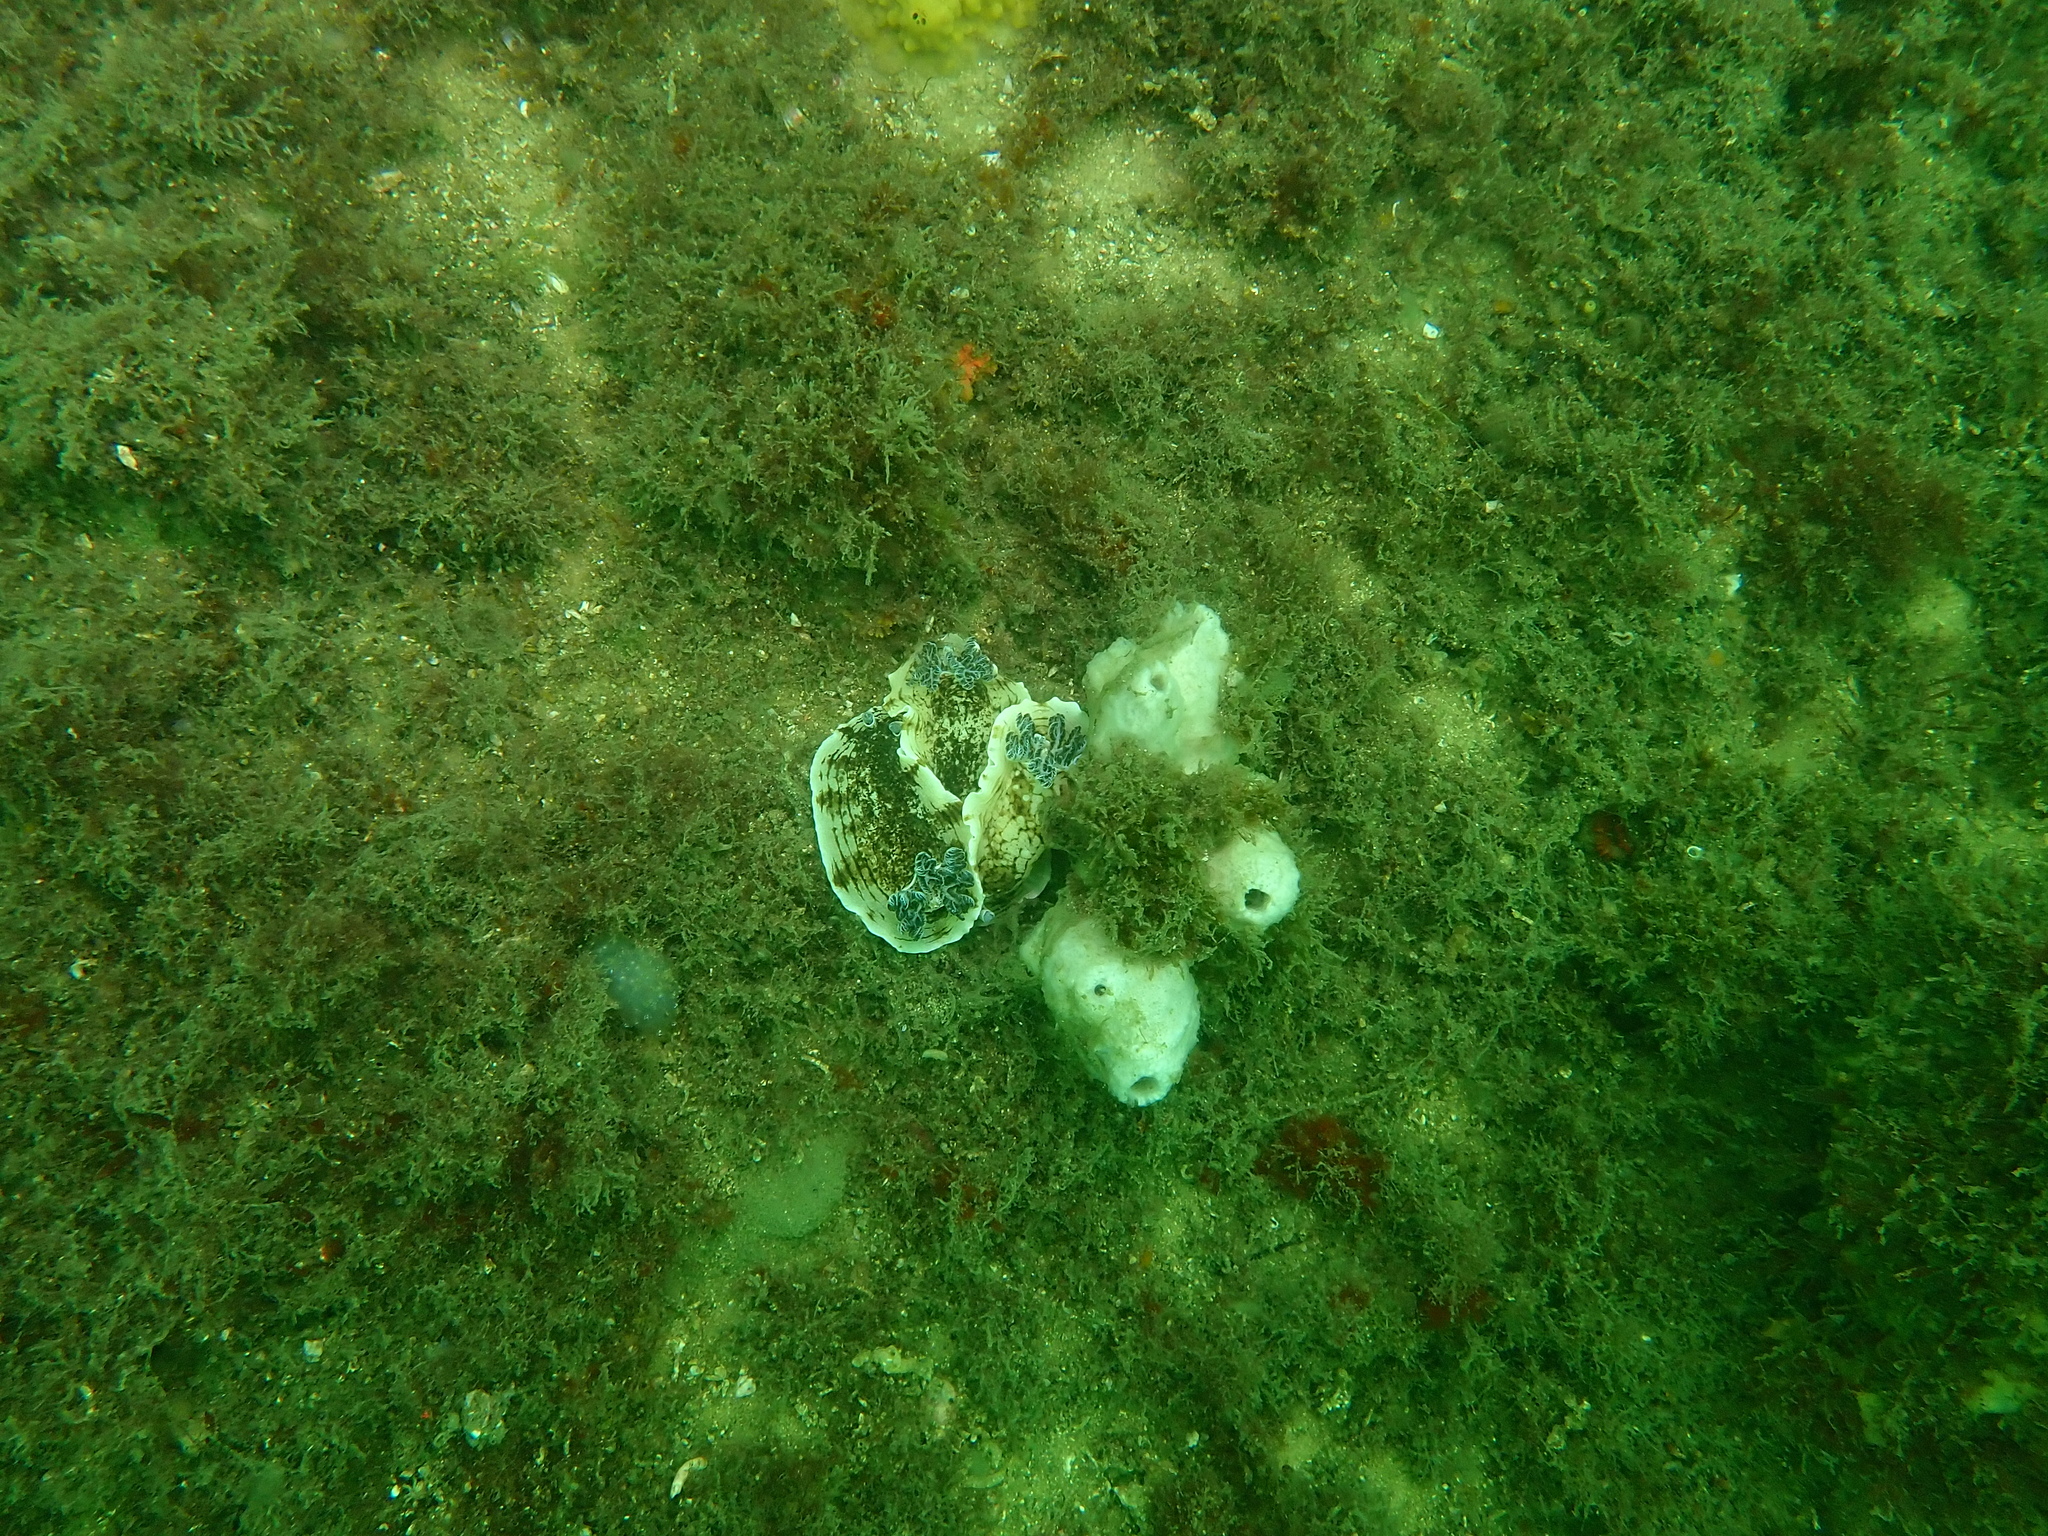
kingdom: Animalia
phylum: Mollusca
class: Gastropoda
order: Nudibranchia
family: Dorididae
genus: Aphelodoris
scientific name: Aphelodoris varia
